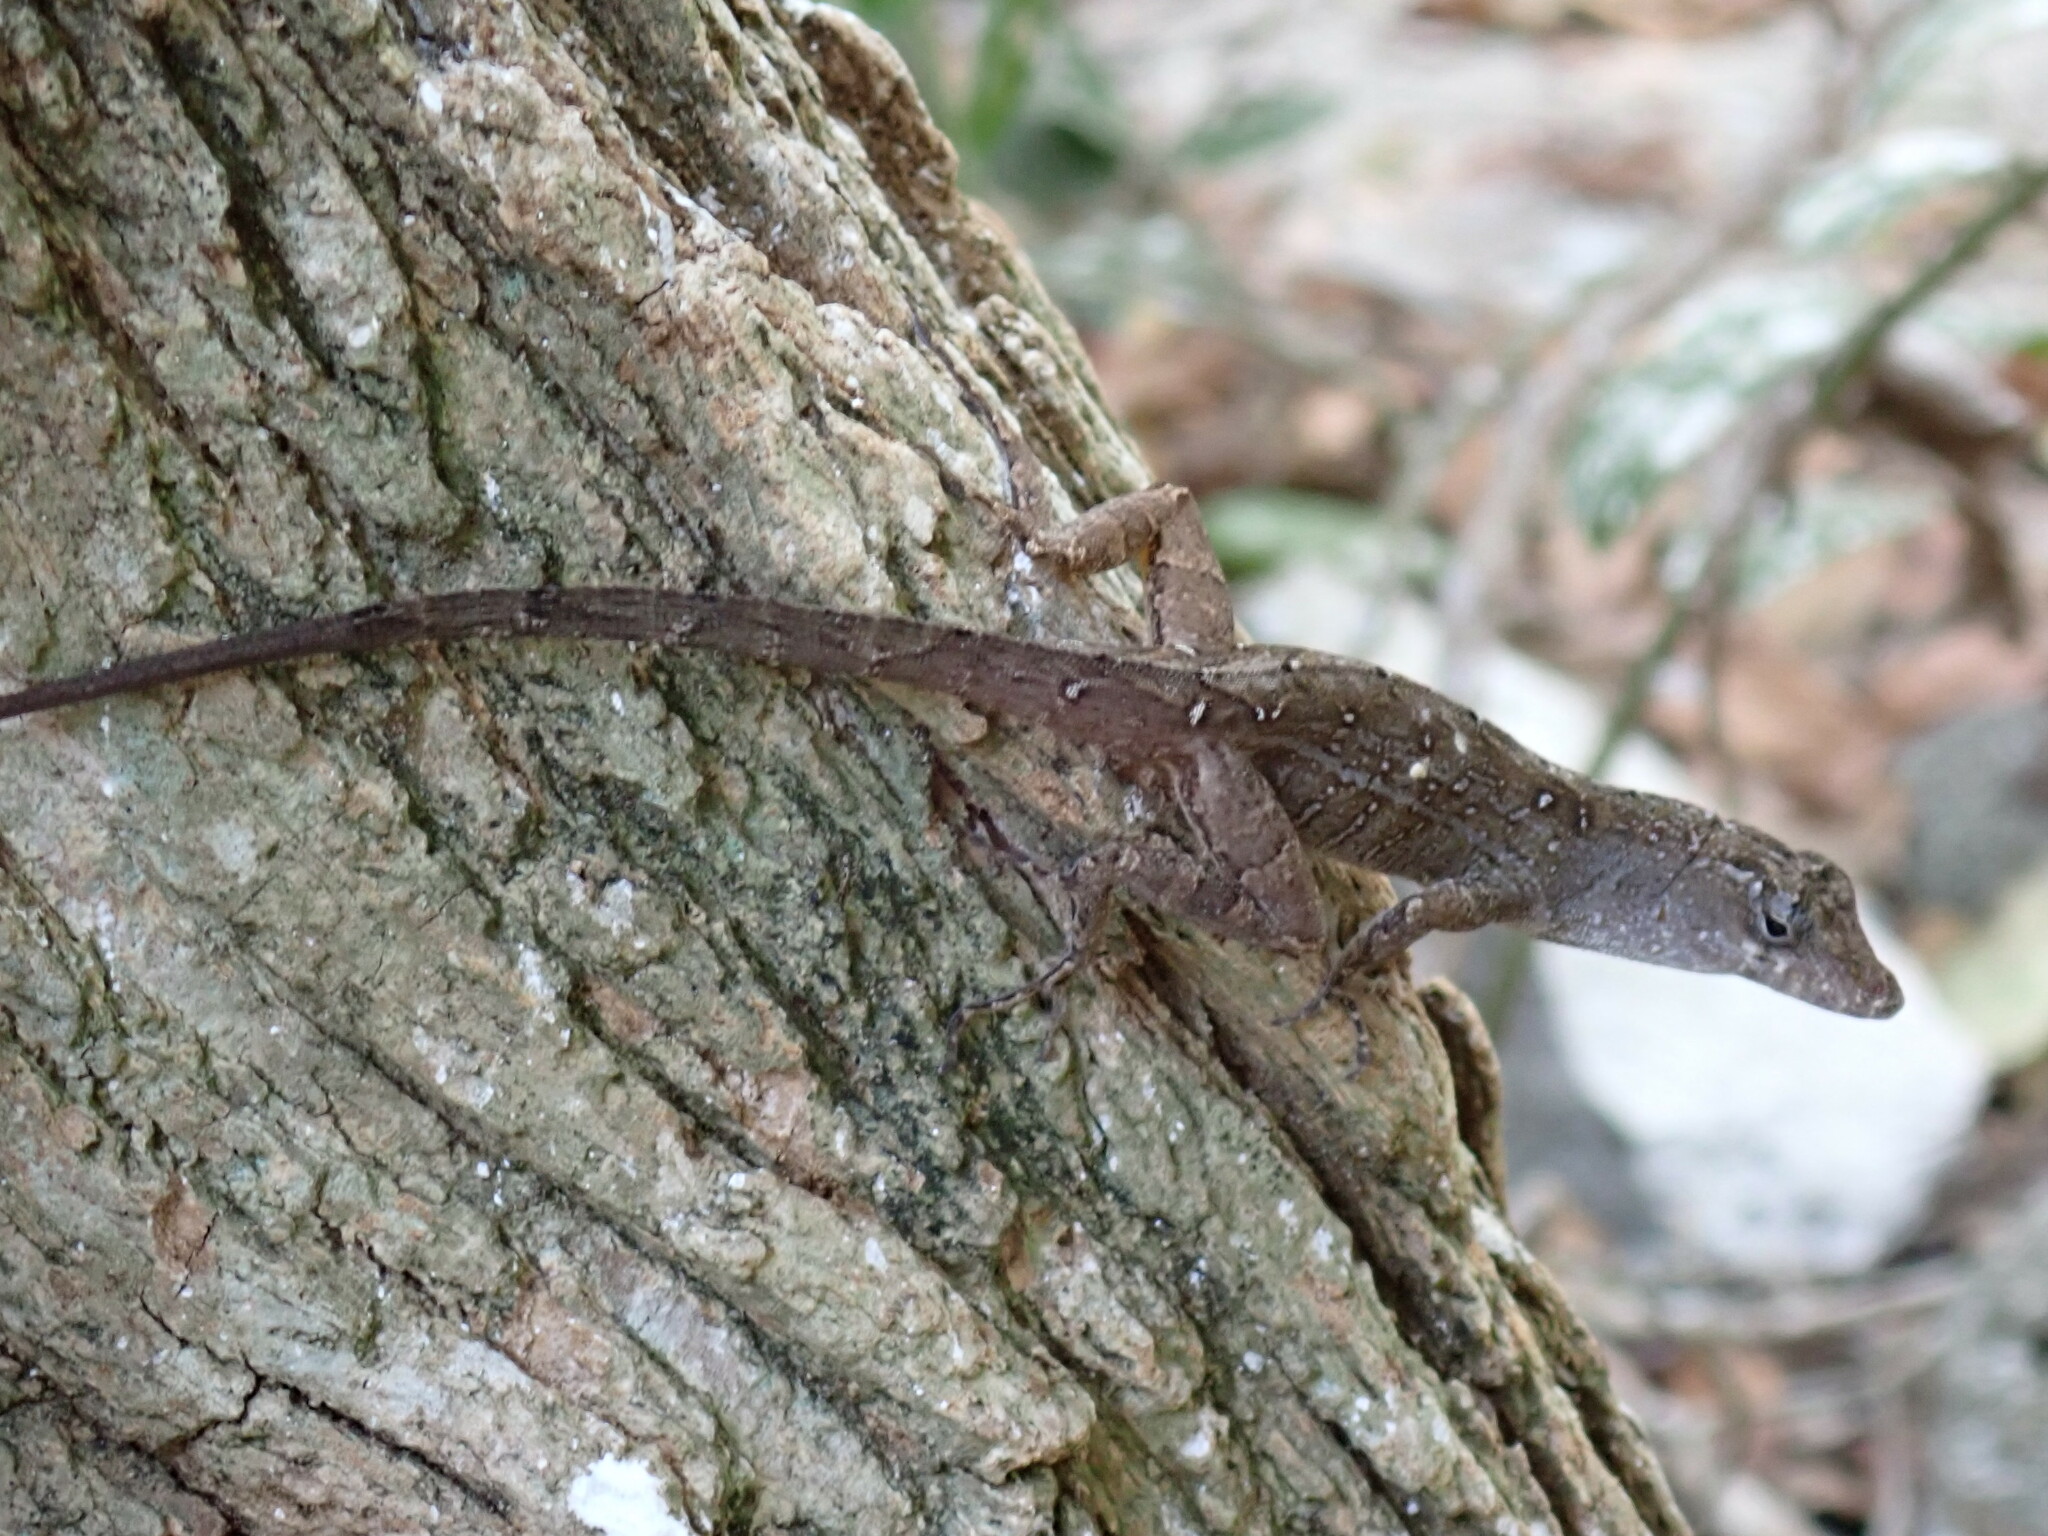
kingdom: Animalia
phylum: Chordata
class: Squamata
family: Dactyloidae
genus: Anolis
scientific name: Anolis sagrei
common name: Brown anole
